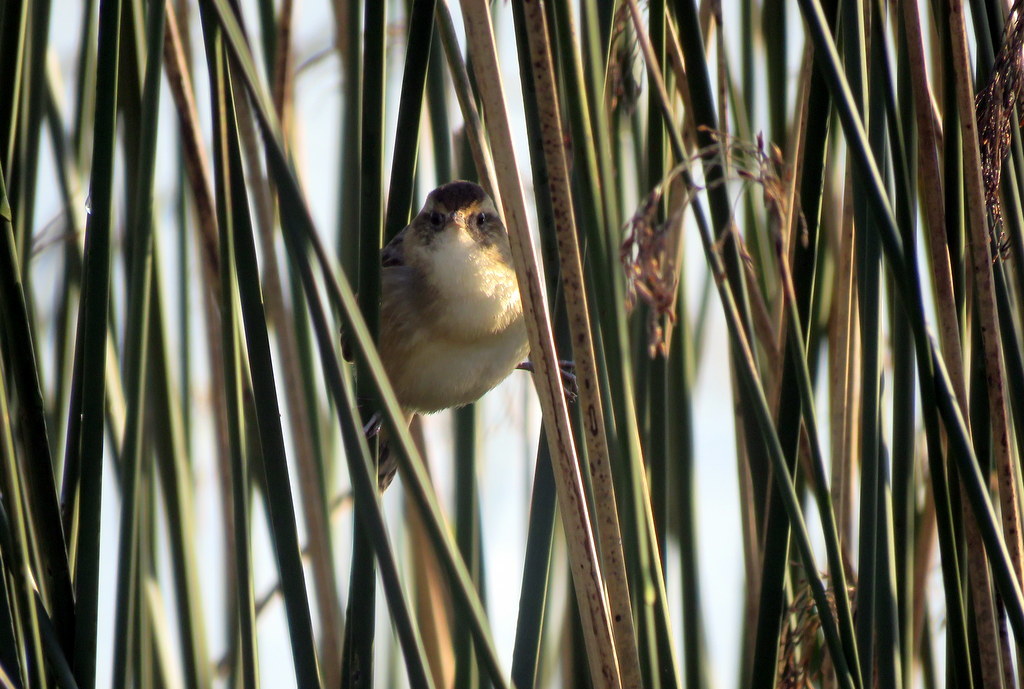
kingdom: Animalia
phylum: Chordata
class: Aves
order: Passeriformes
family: Furnariidae
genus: Phleocryptes
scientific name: Phleocryptes melanops
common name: Wren-like rushbird
